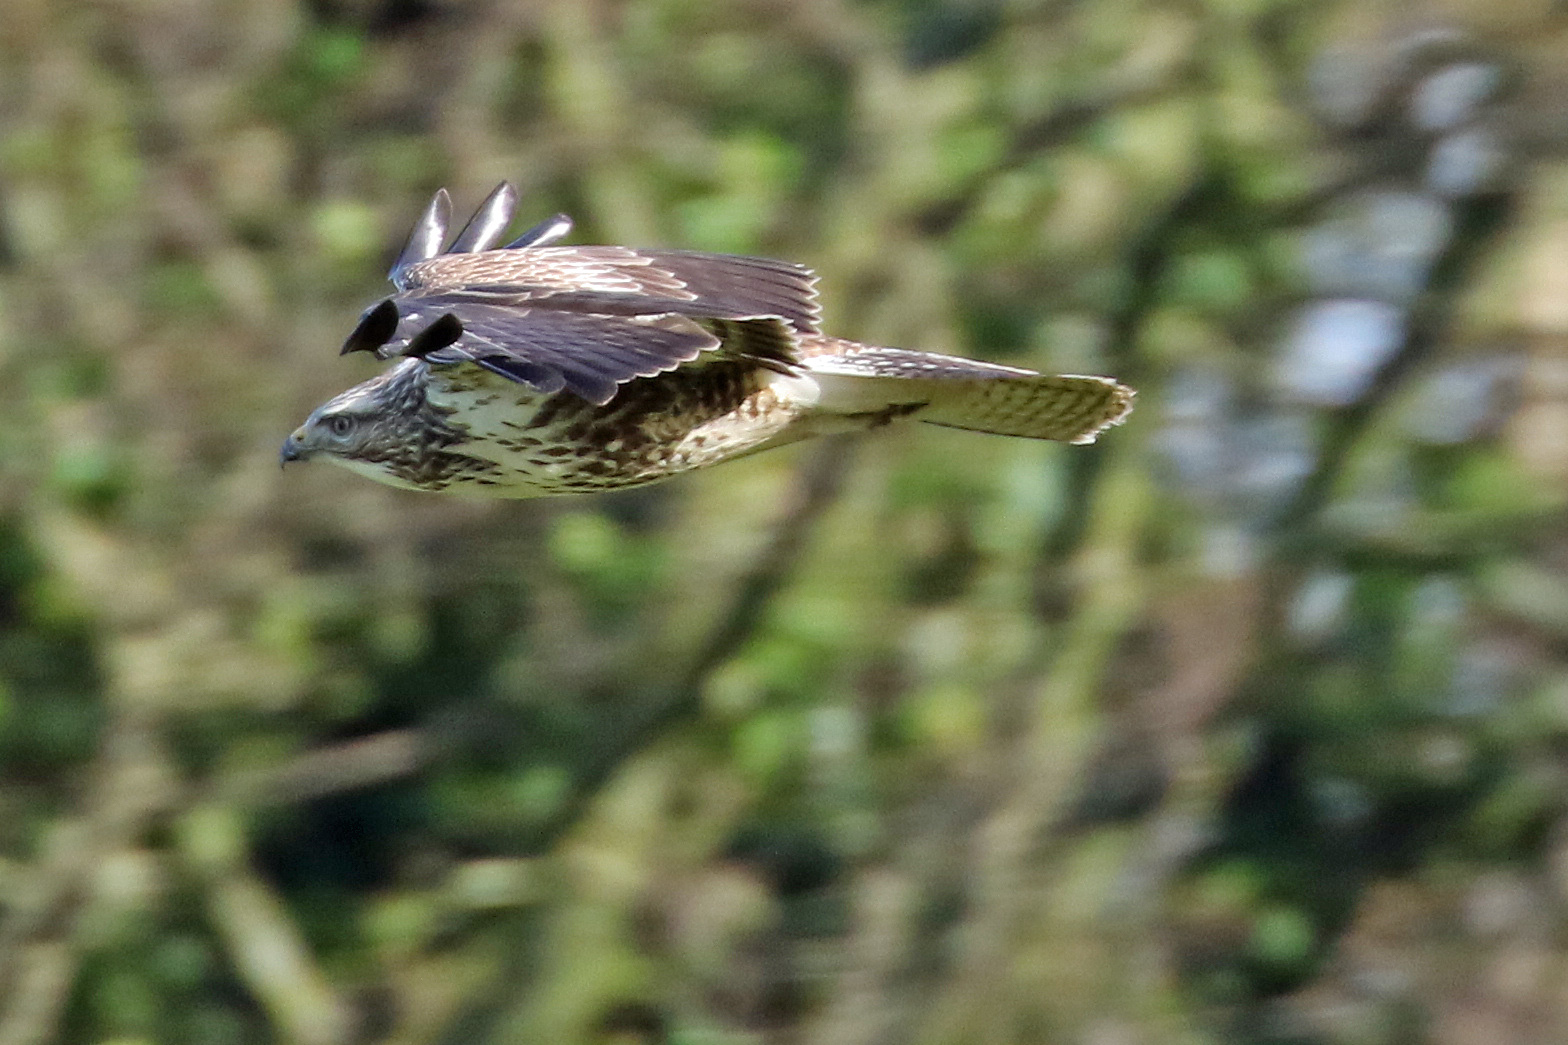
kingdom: Animalia
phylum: Chordata
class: Aves
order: Accipitriformes
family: Accipitridae
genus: Buteo
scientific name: Buteo buteo
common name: Common buzzard
